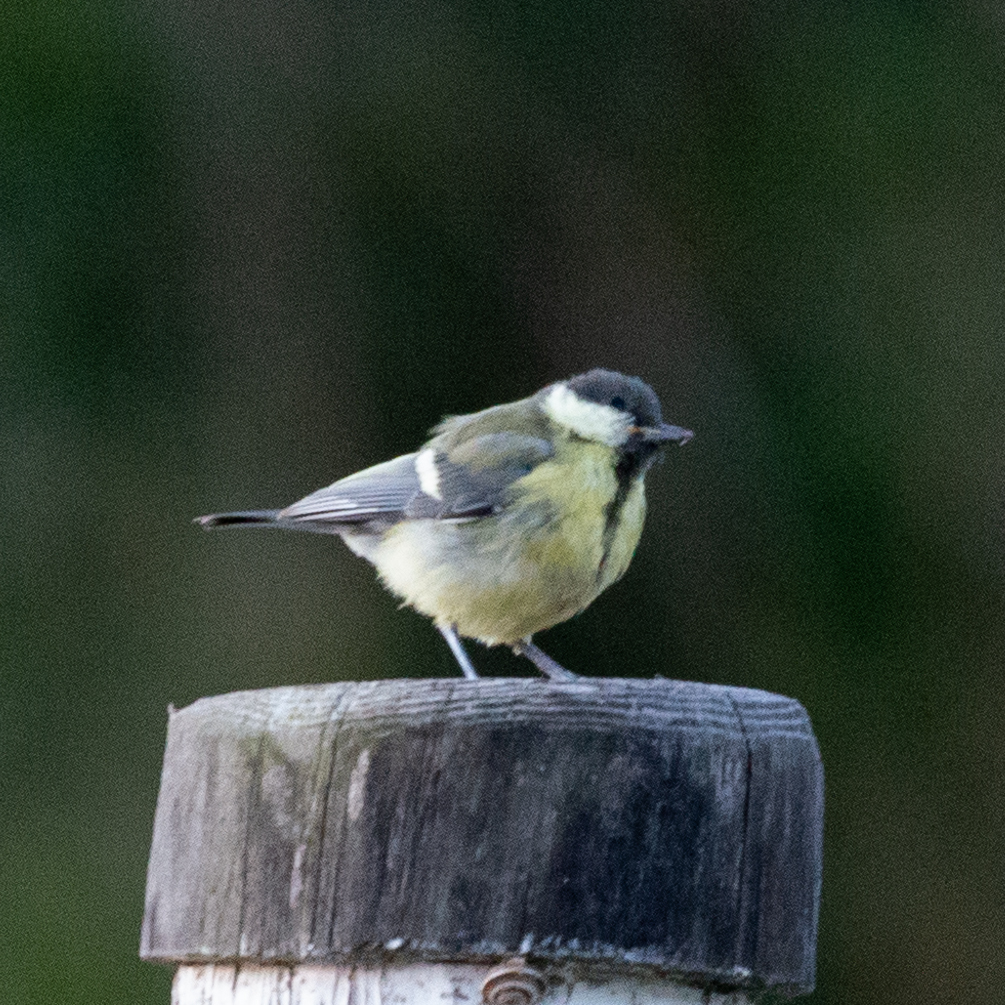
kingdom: Animalia
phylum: Chordata
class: Aves
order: Passeriformes
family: Paridae
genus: Parus
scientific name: Parus major
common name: Great tit
